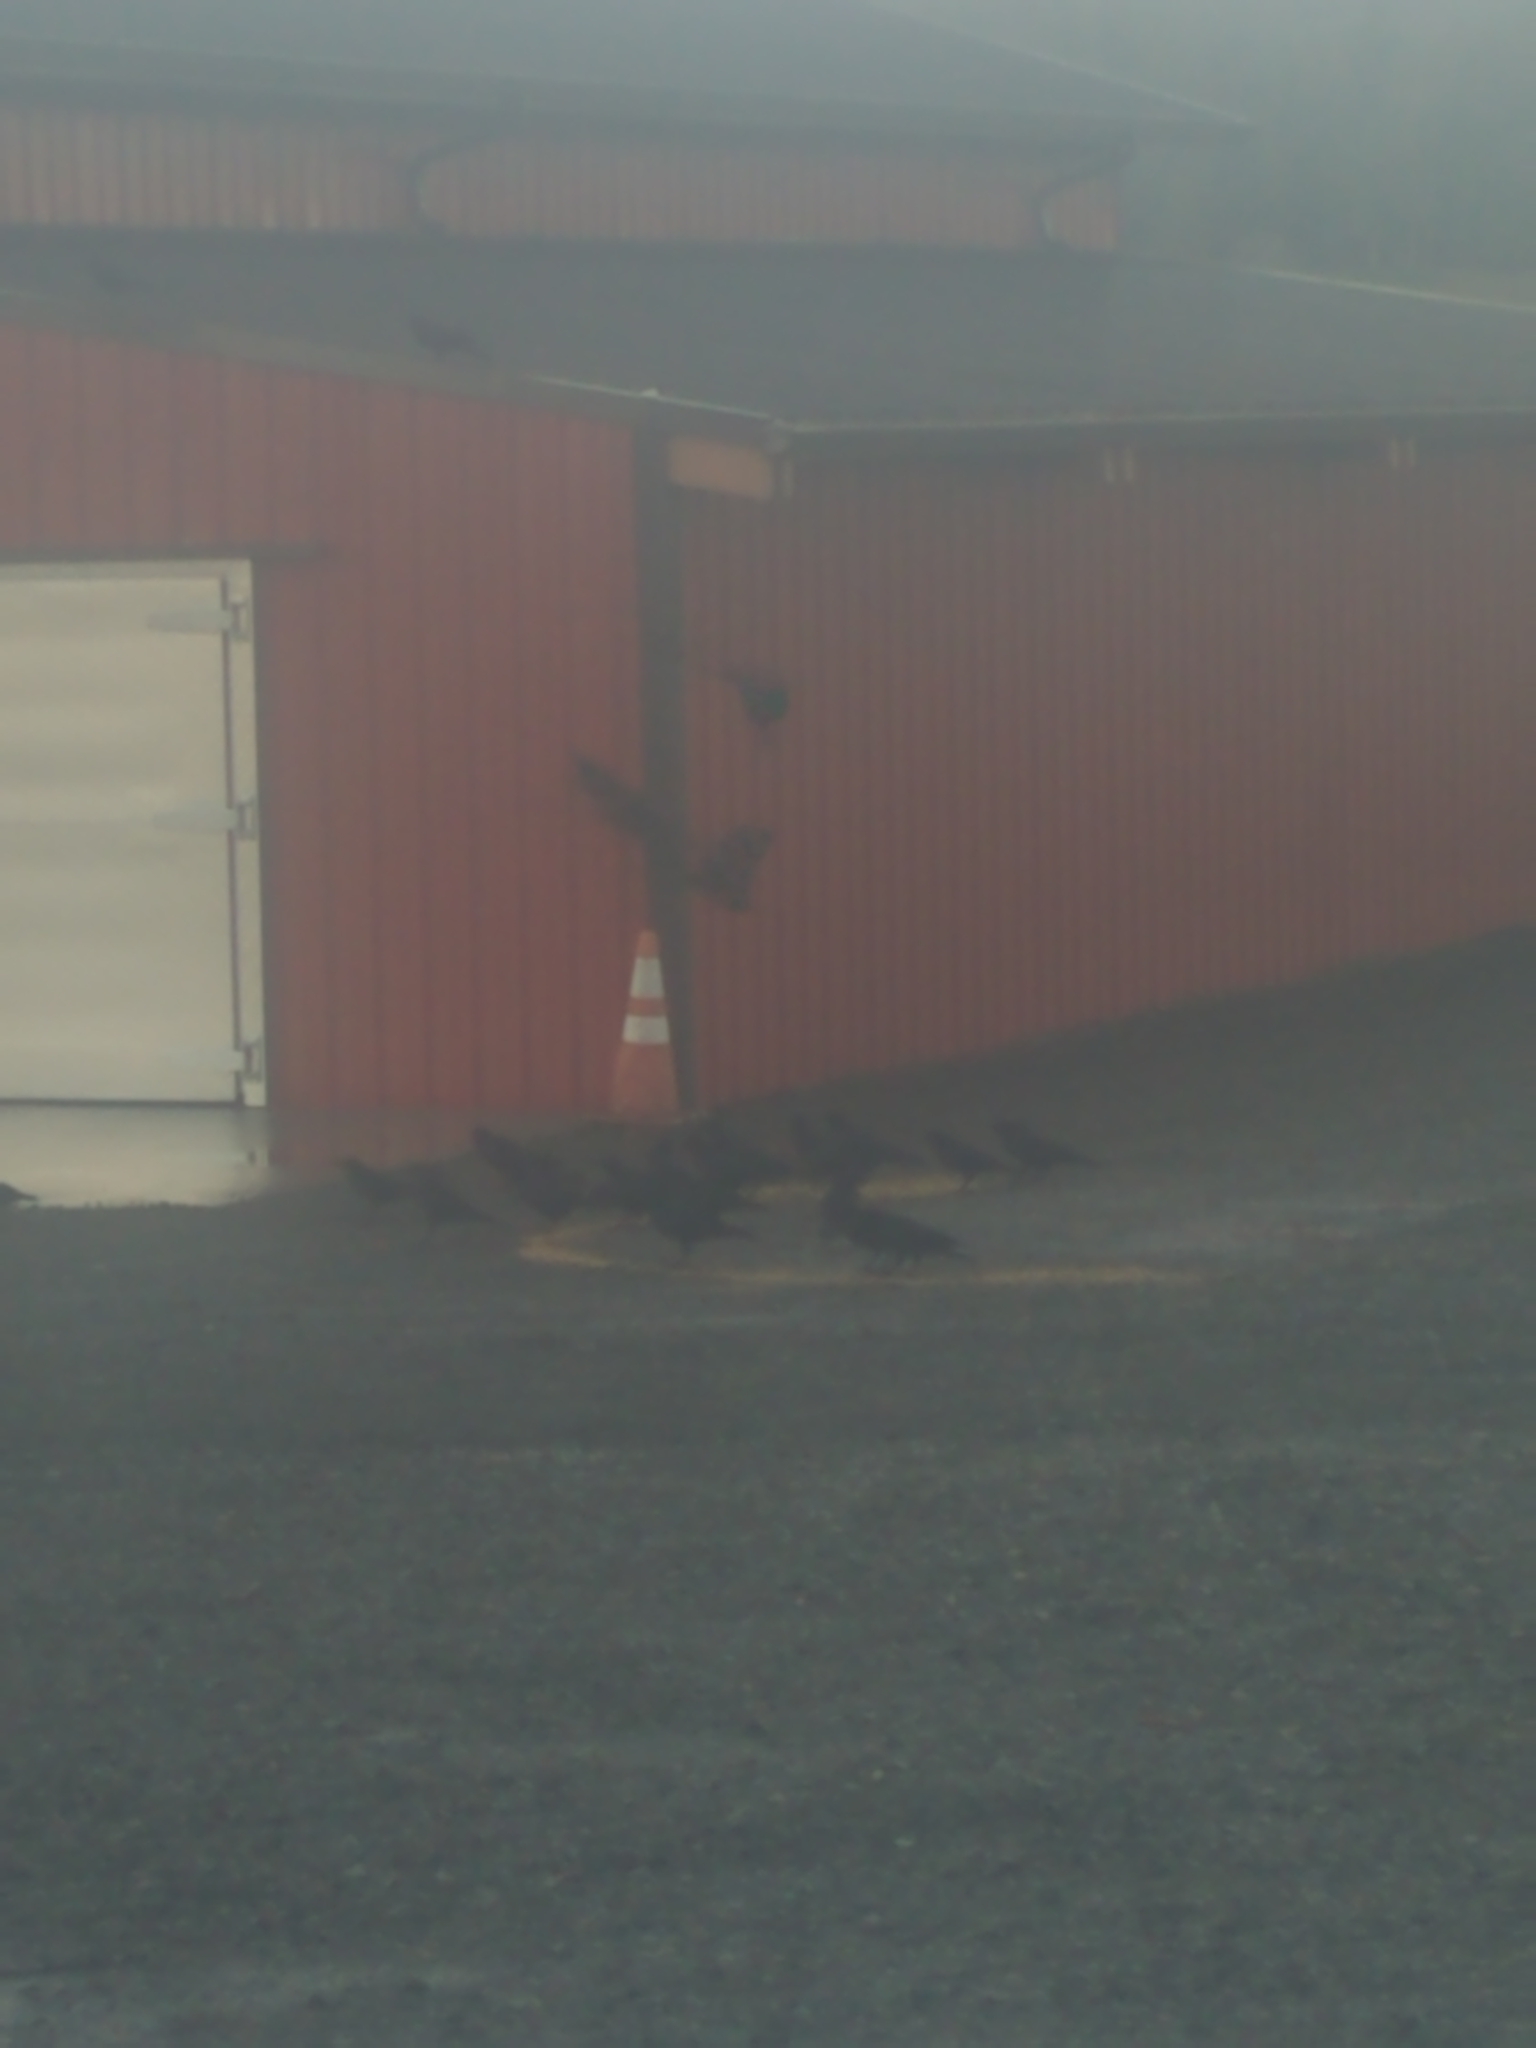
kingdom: Animalia
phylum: Chordata
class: Aves
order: Passeriformes
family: Corvidae
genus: Corvus
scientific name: Corvus brachyrhynchos
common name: American crow
